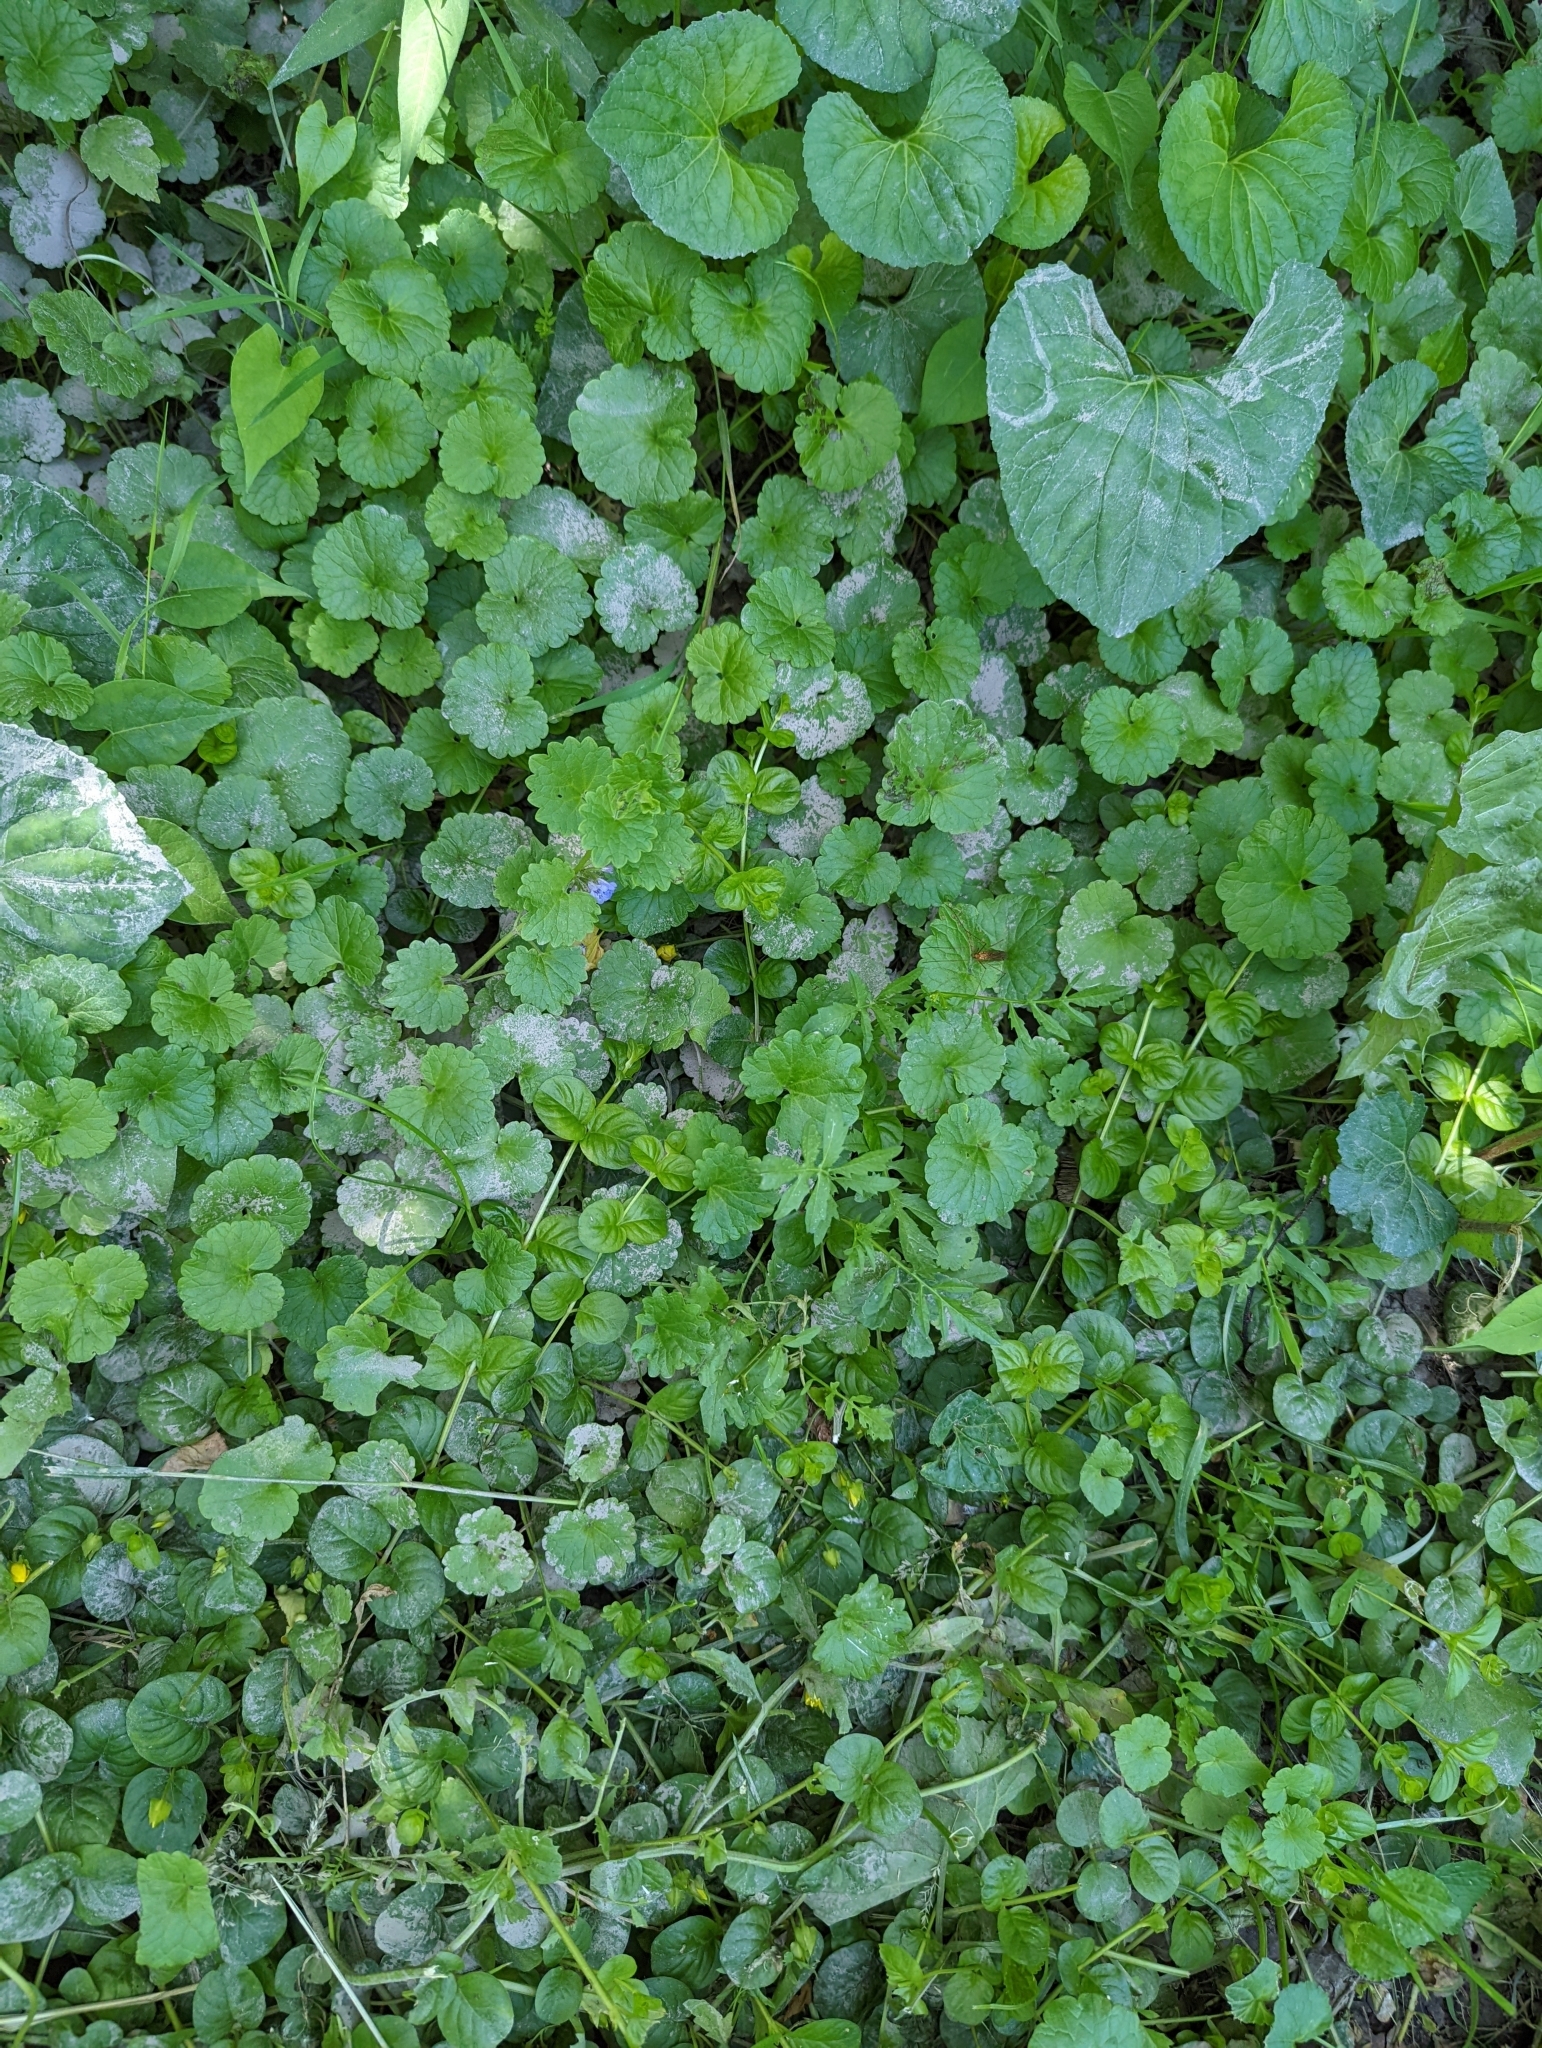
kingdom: Plantae
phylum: Tracheophyta
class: Magnoliopsida
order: Lamiales
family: Lamiaceae
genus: Glechoma
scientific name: Glechoma hederacea
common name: Ground ivy
